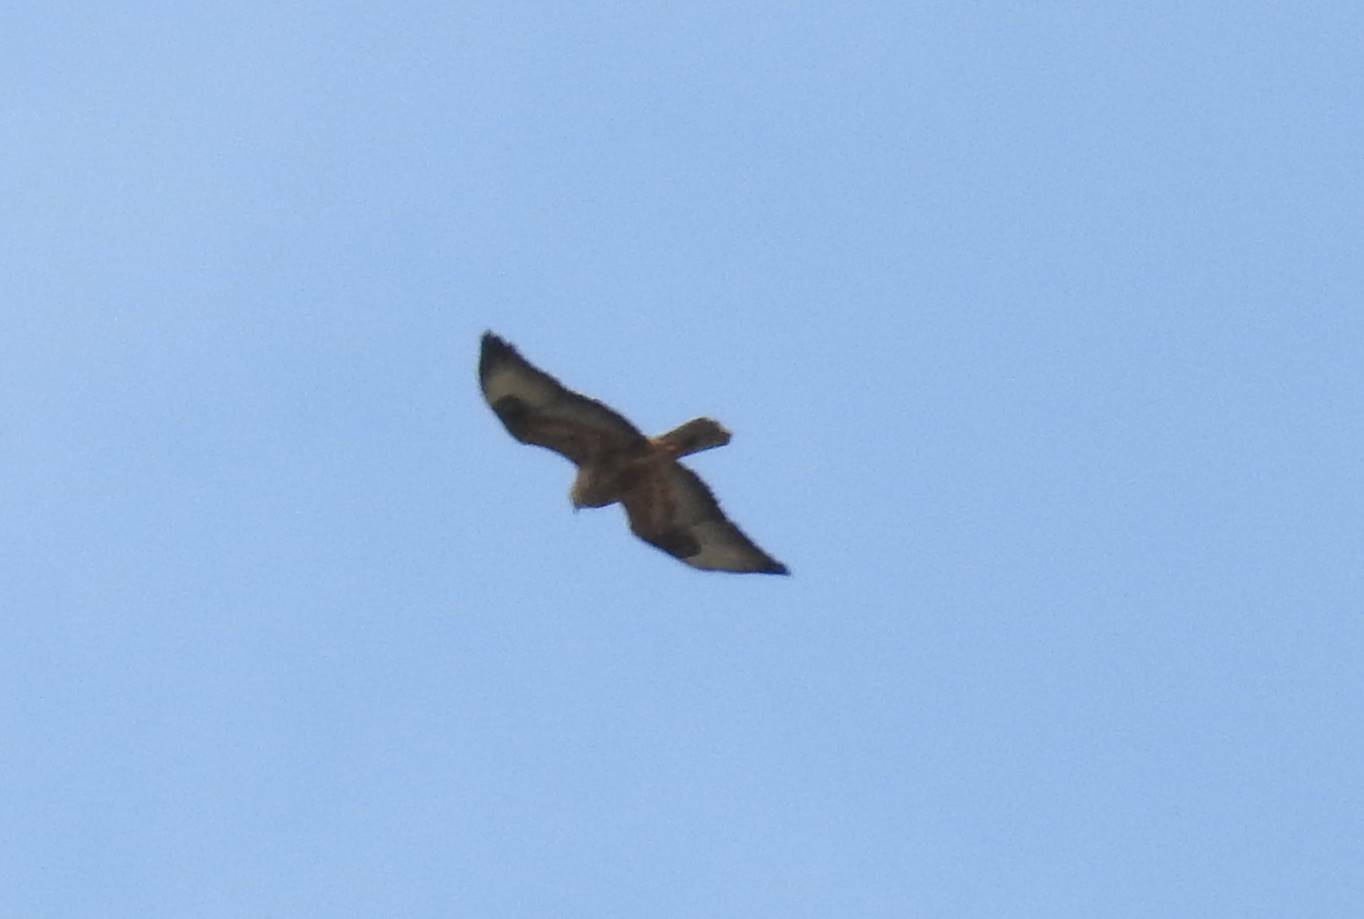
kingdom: Animalia
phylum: Chordata
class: Aves
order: Accipitriformes
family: Accipitridae
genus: Buteo
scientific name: Buteo rufinus
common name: Long-legged buzzard
